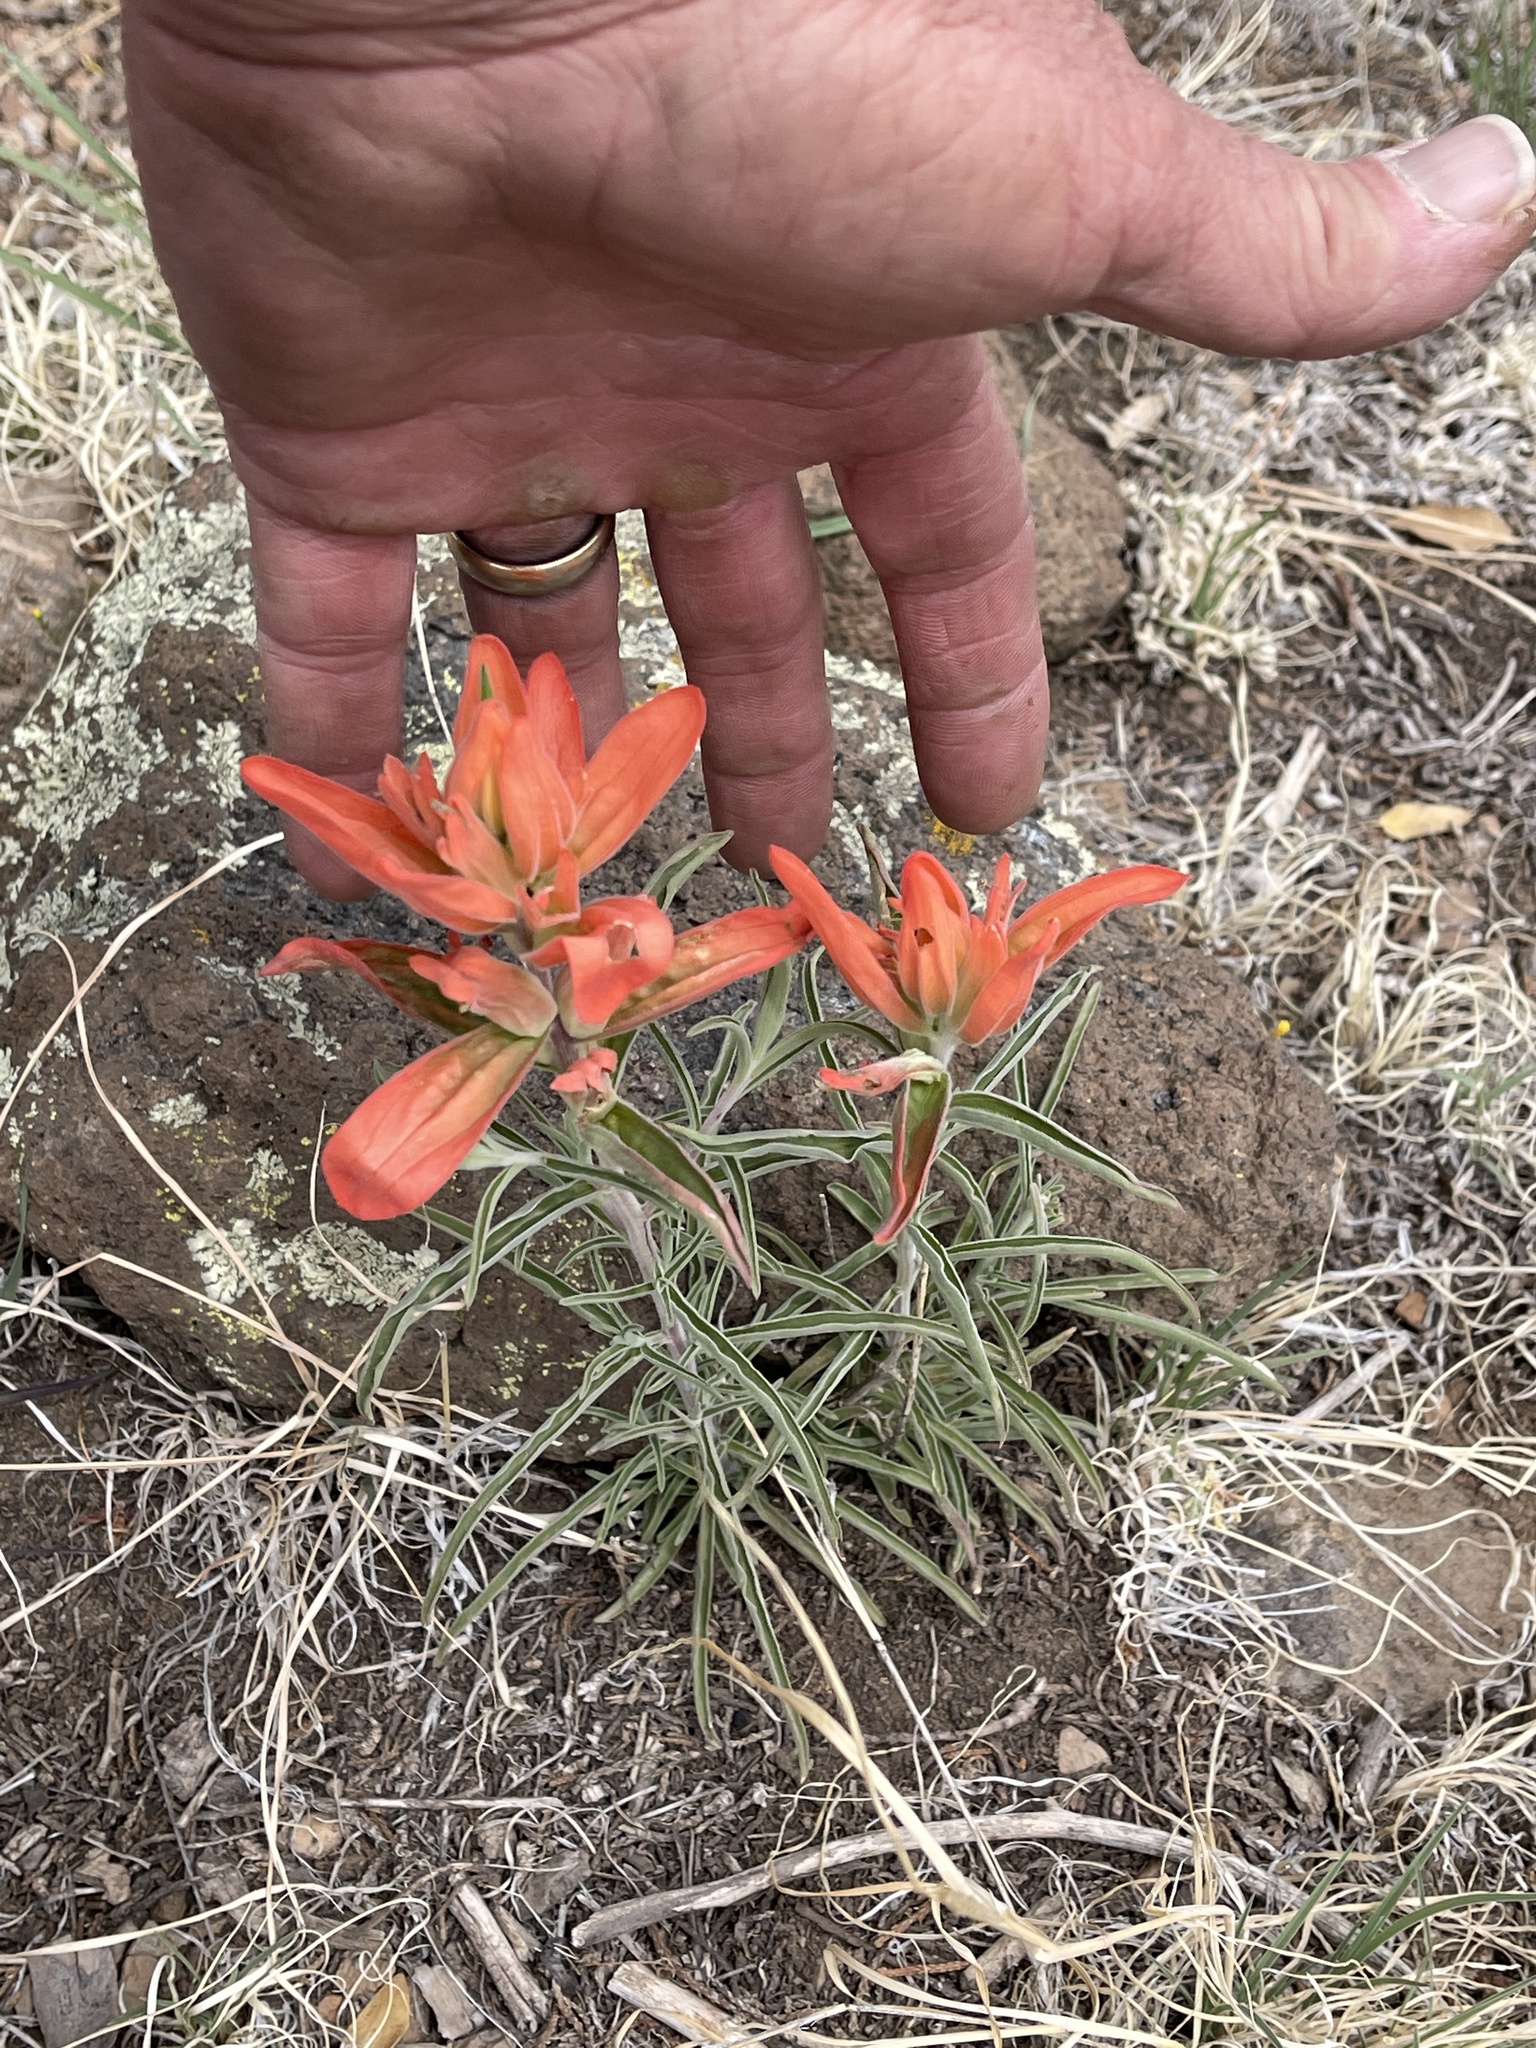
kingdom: Plantae
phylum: Tracheophyta
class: Magnoliopsida
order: Lamiales
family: Orobanchaceae
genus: Castilleja
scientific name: Castilleja integra
